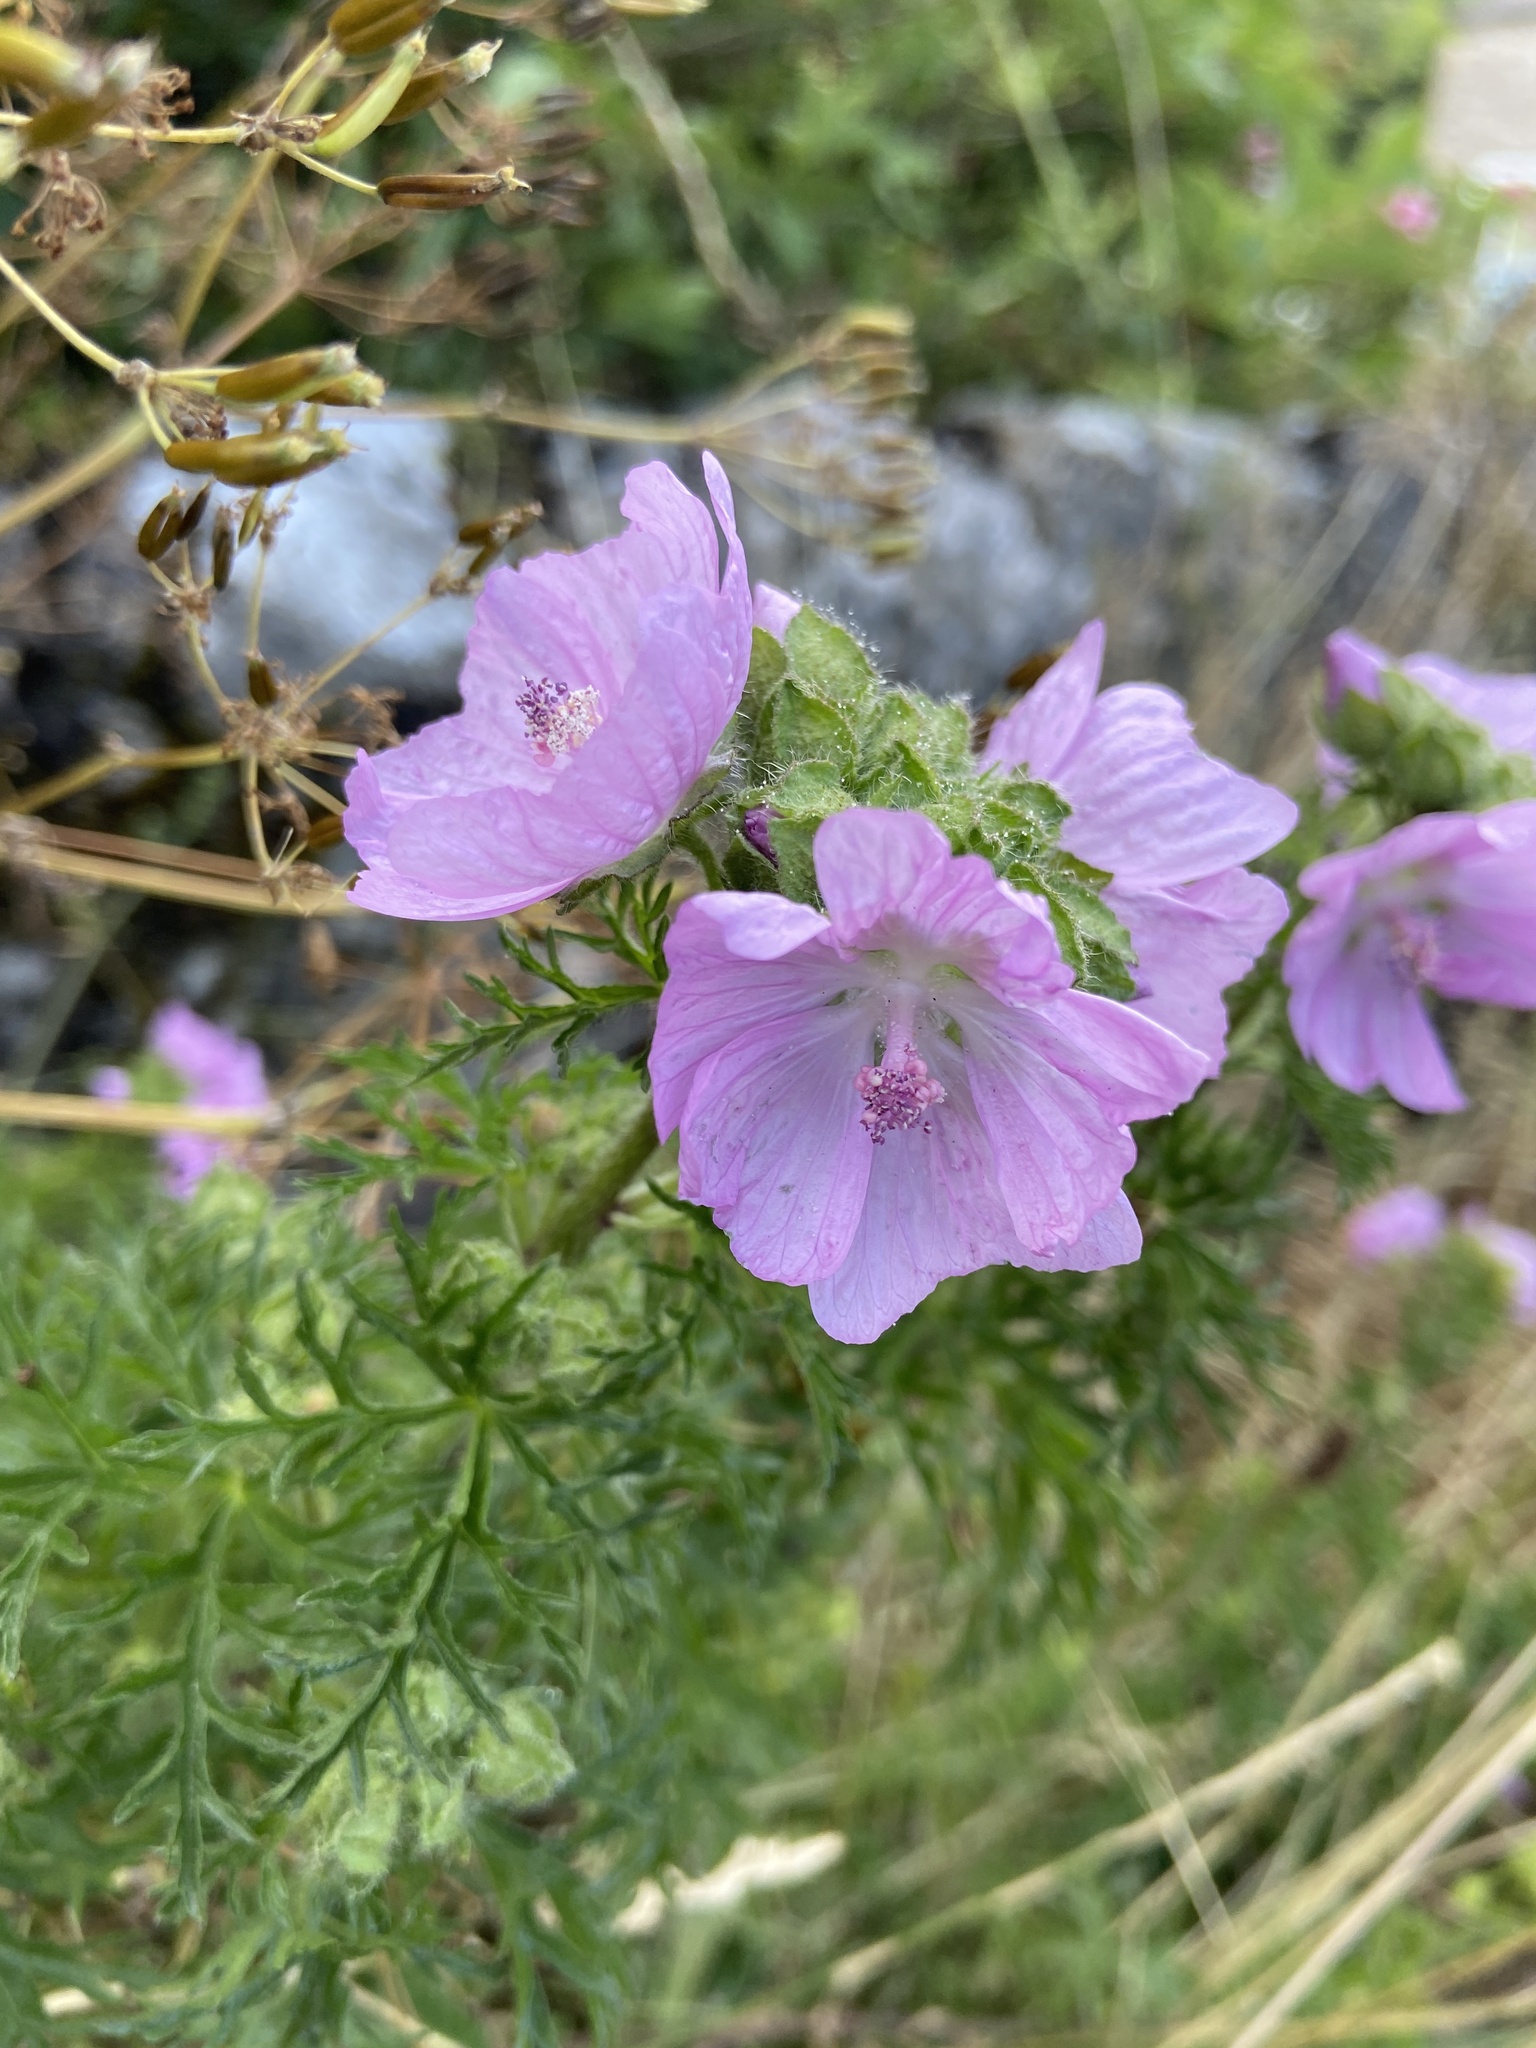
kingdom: Plantae
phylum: Tracheophyta
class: Magnoliopsida
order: Malvales
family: Malvaceae
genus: Malva
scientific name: Malva moschata
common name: Musk mallow
